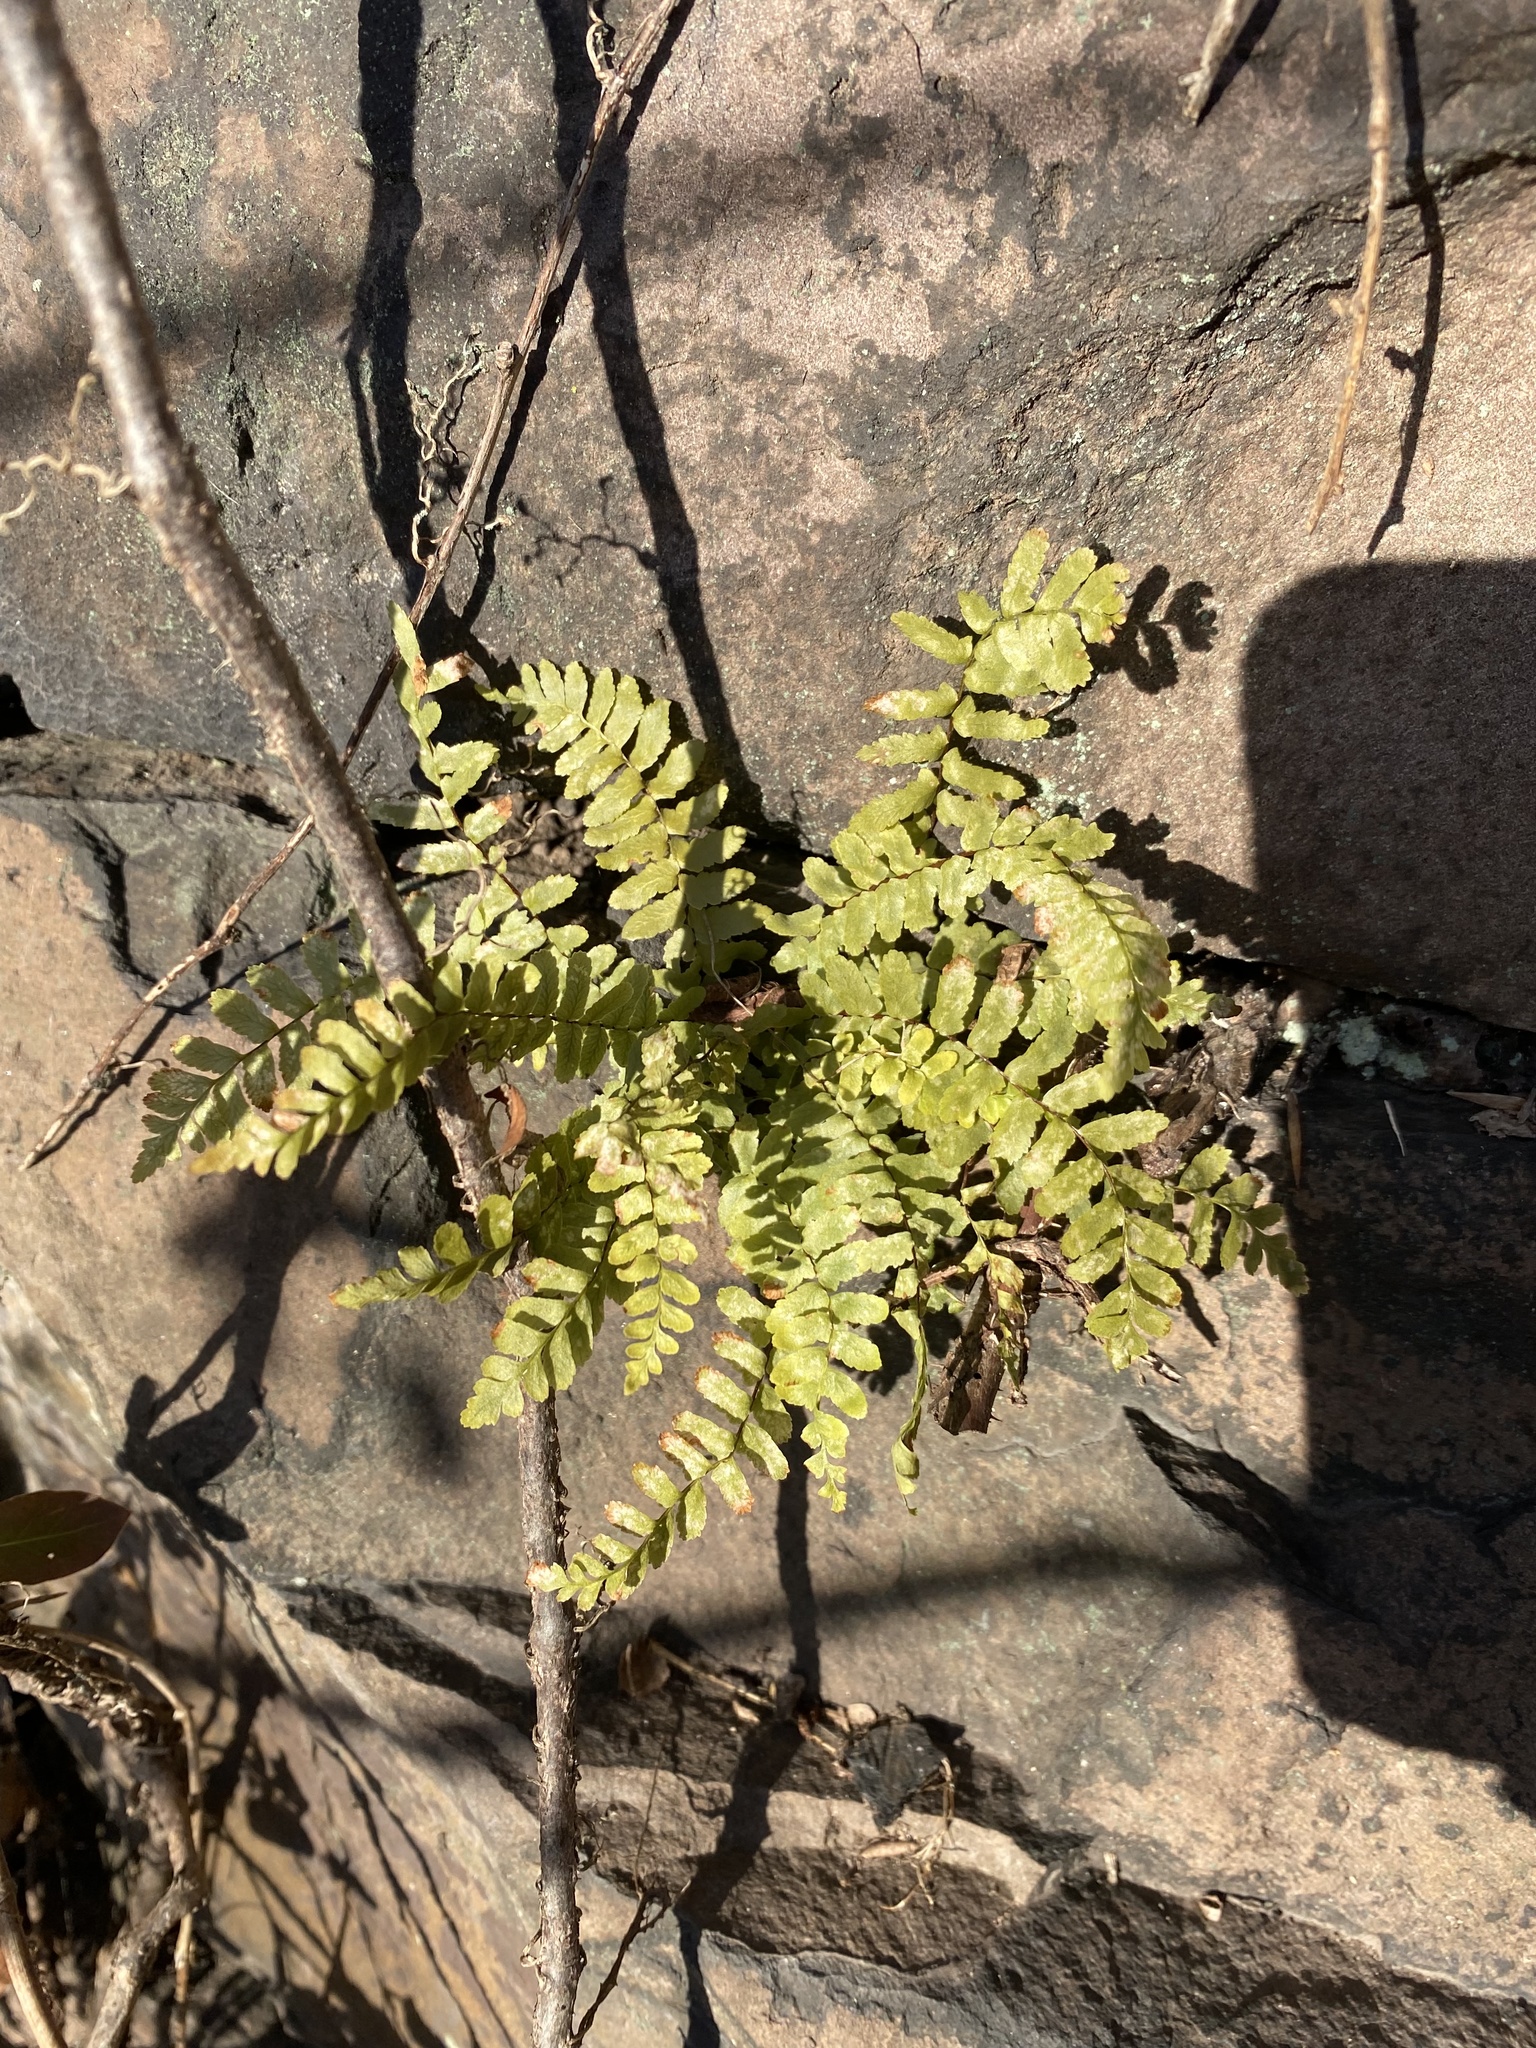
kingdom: Plantae
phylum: Tracheophyta
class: Polypodiopsida
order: Polypodiales
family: Aspleniaceae
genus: Asplenium
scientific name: Asplenium platyneuron
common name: Ebony spleenwort
